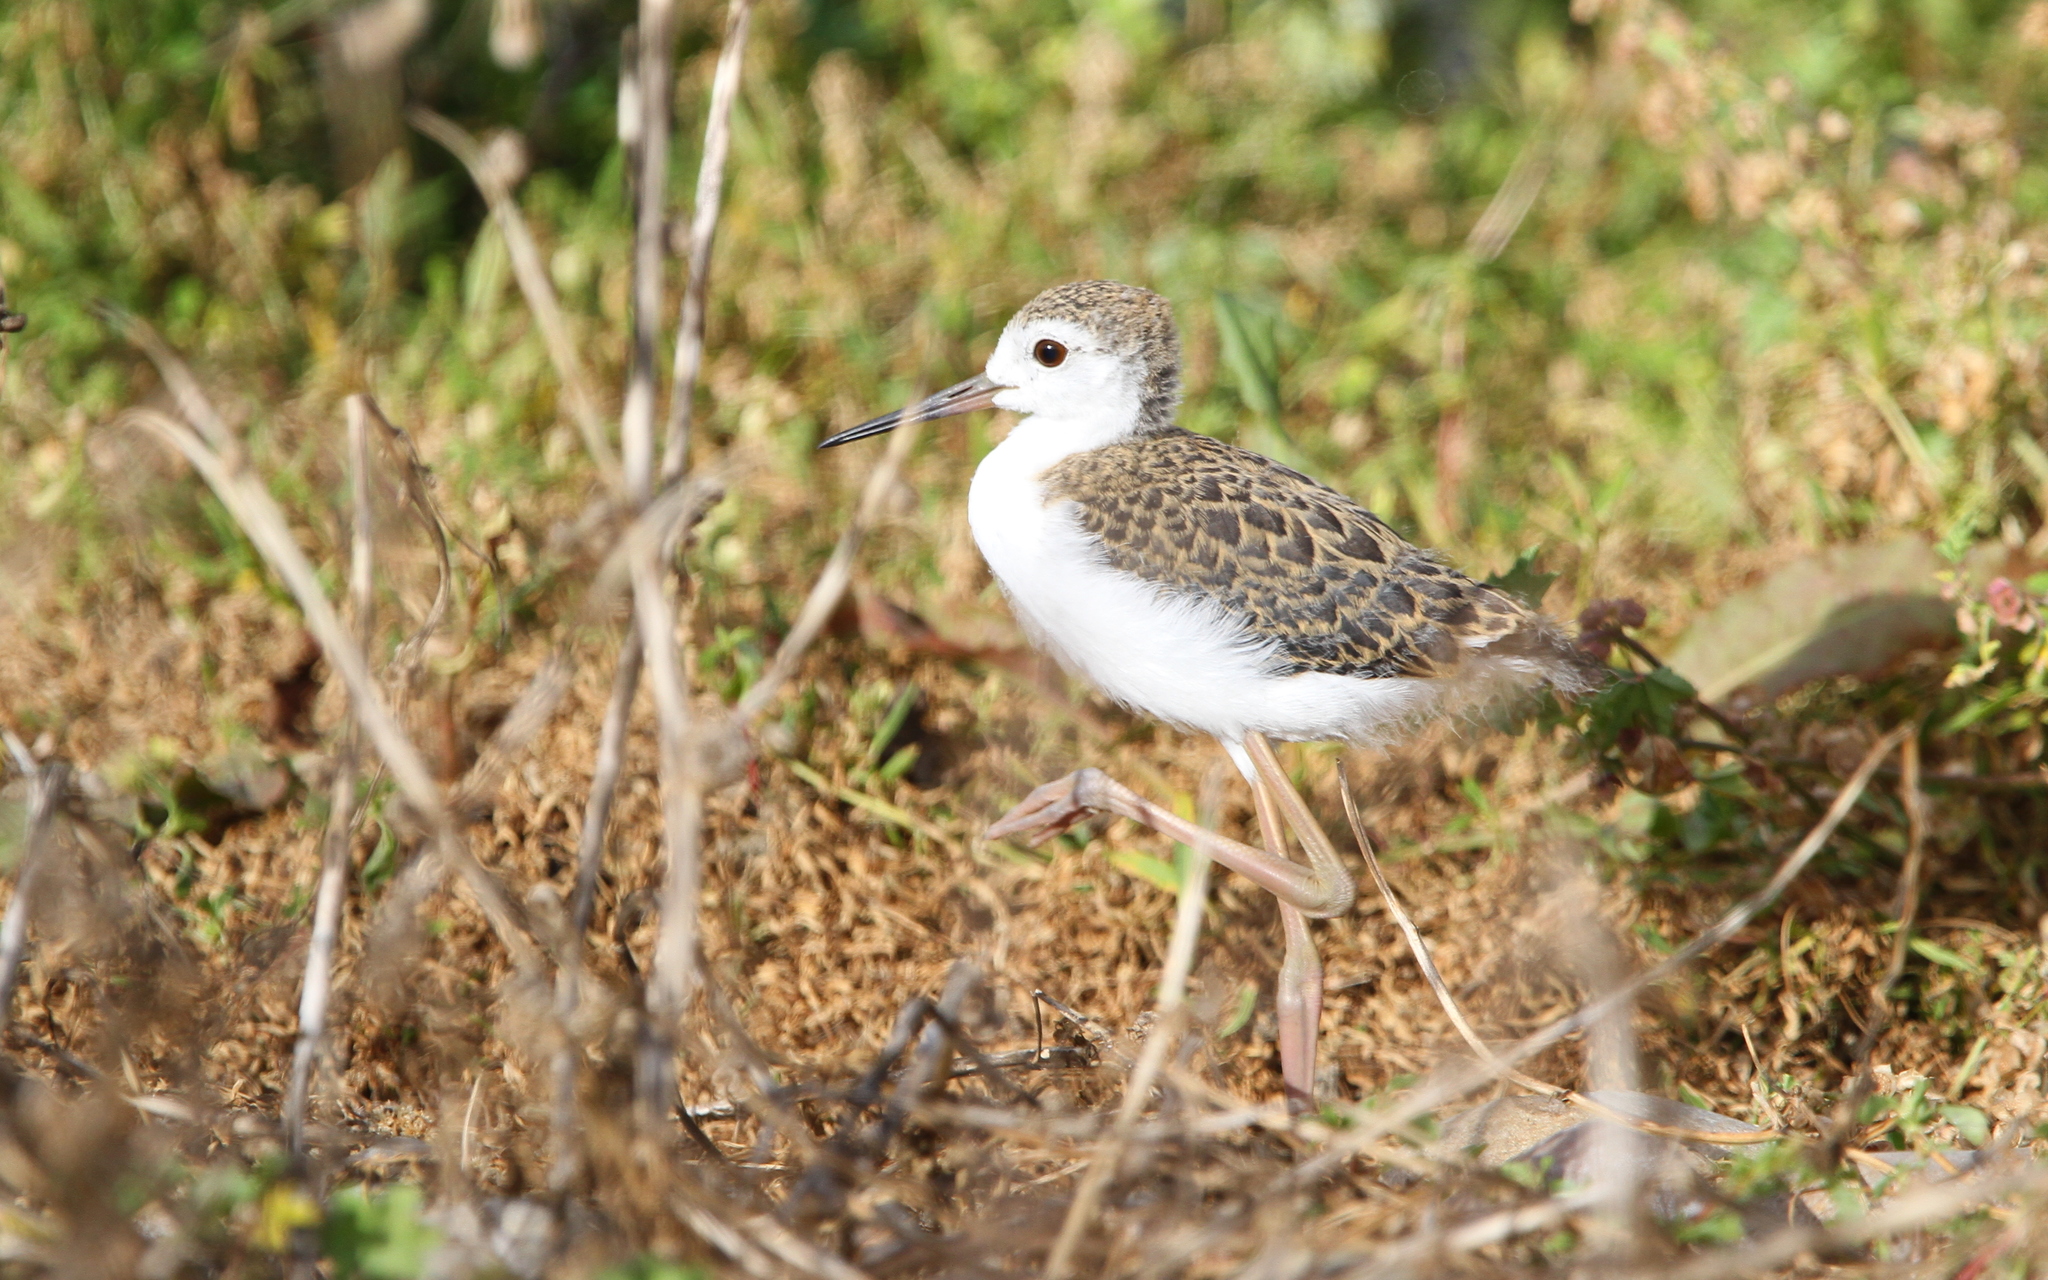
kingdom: Animalia
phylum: Chordata
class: Aves
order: Charadriiformes
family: Recurvirostridae
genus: Himantopus
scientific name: Himantopus himantopus
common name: Black-winged stilt
